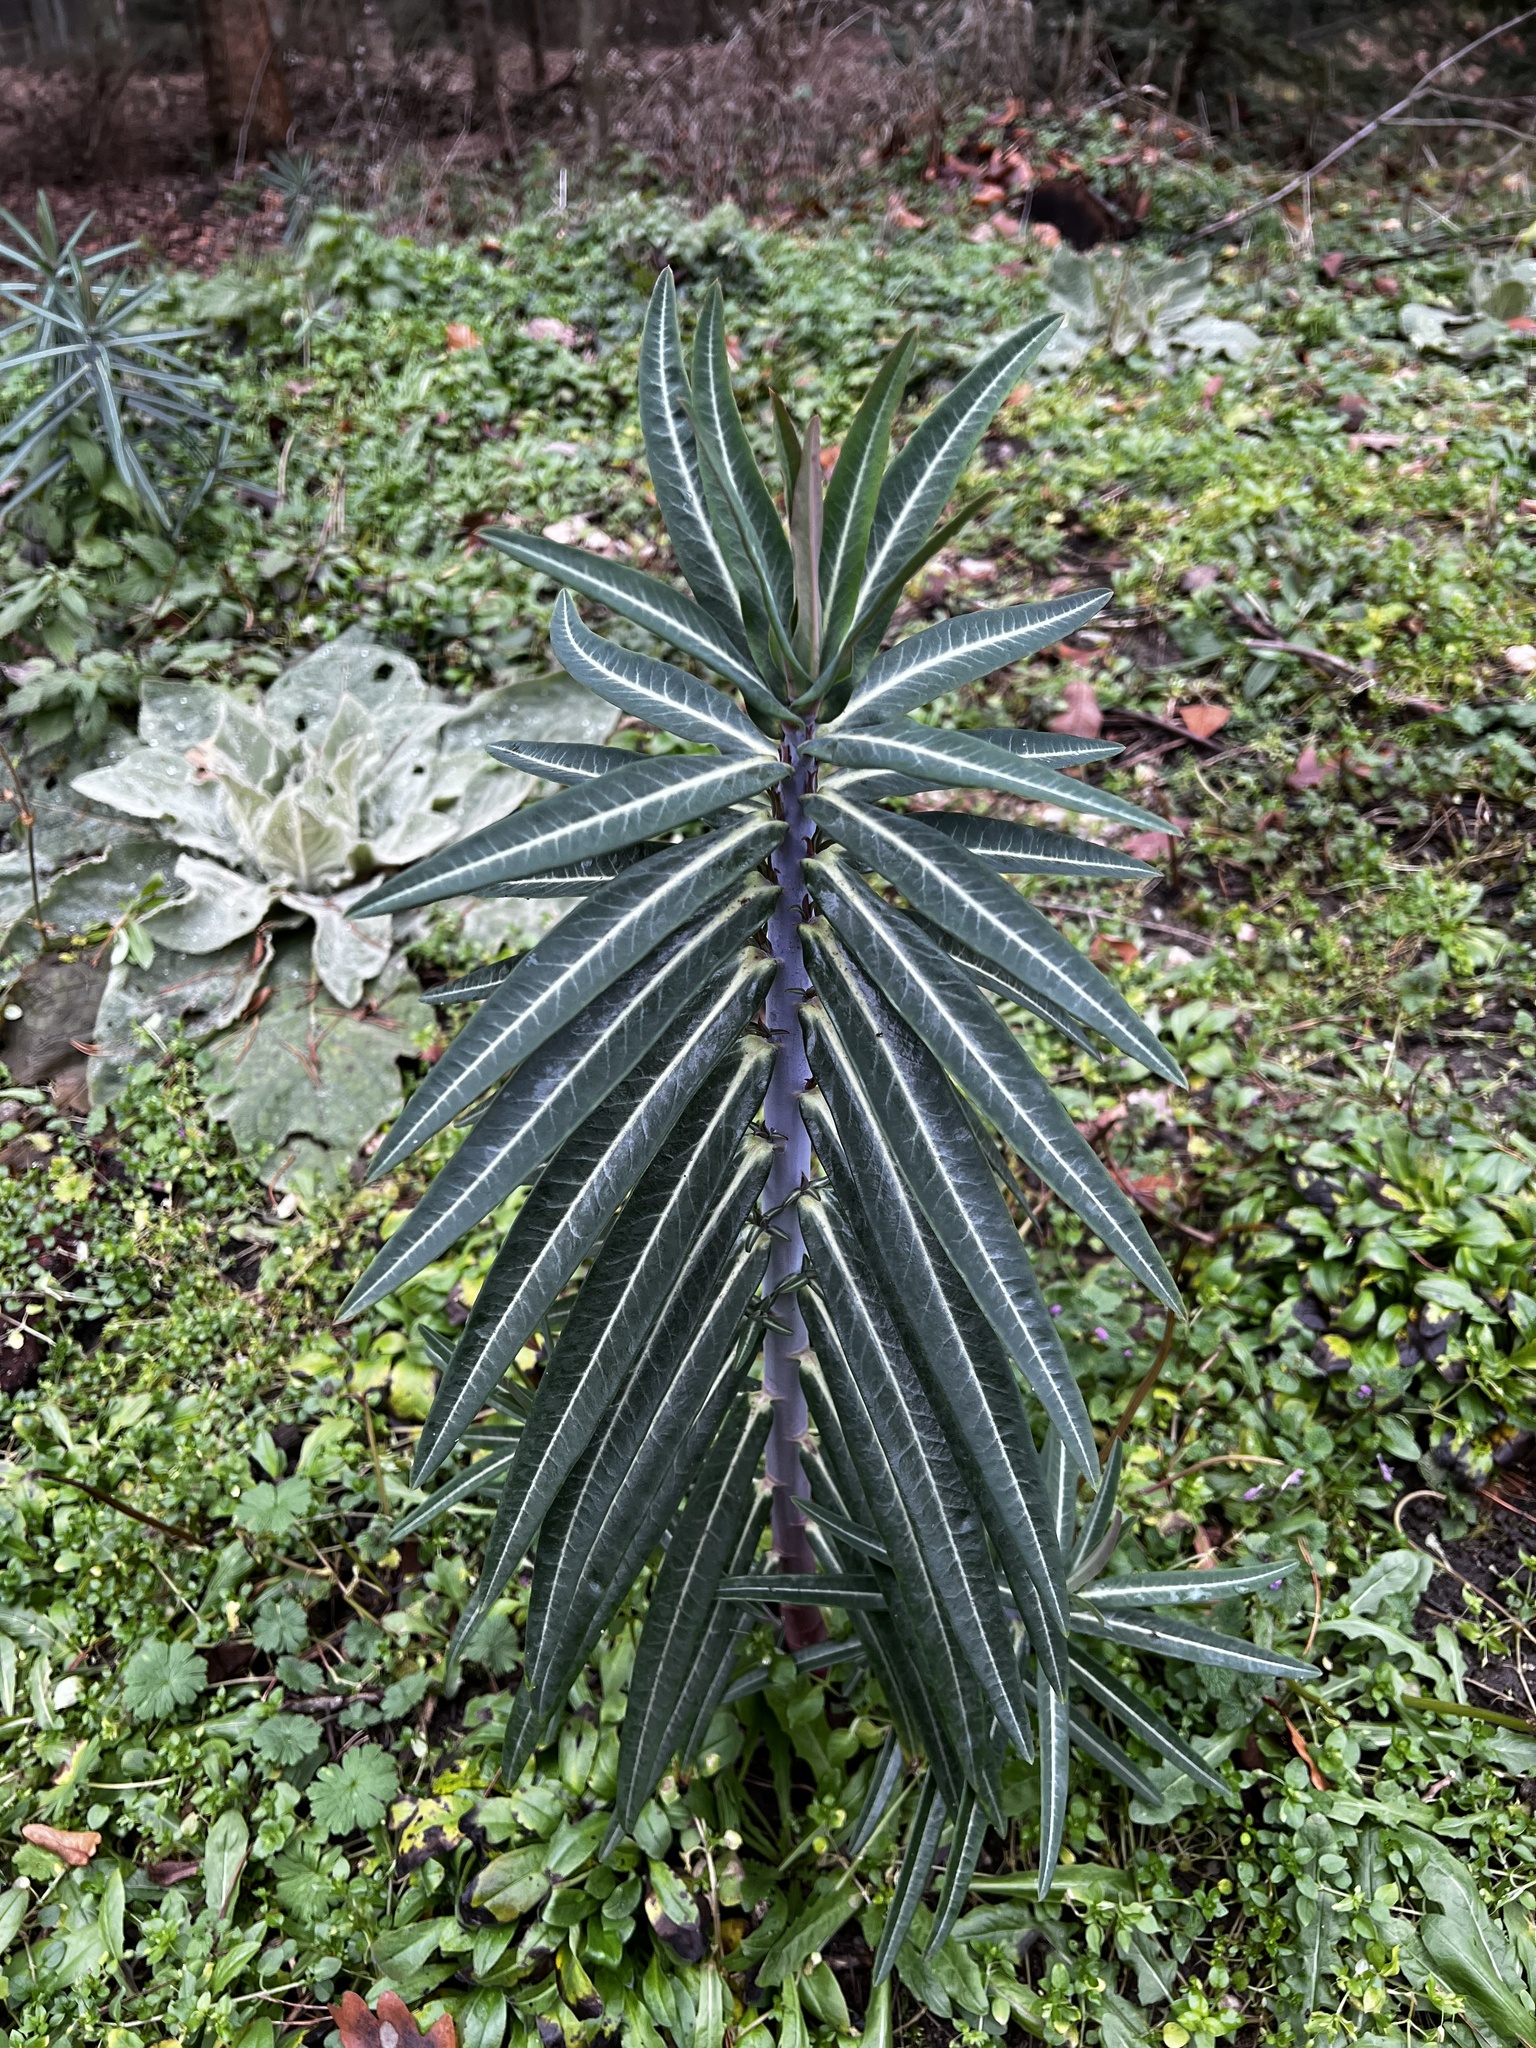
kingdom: Plantae
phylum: Tracheophyta
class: Magnoliopsida
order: Malpighiales
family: Euphorbiaceae
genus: Euphorbia
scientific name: Euphorbia lathyris
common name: Caper spurge
